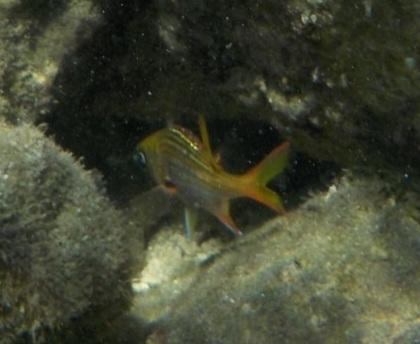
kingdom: Animalia
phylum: Chordata
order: Beryciformes
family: Holocentridae
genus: Neoniphon
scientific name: Neoniphon vexillarium
